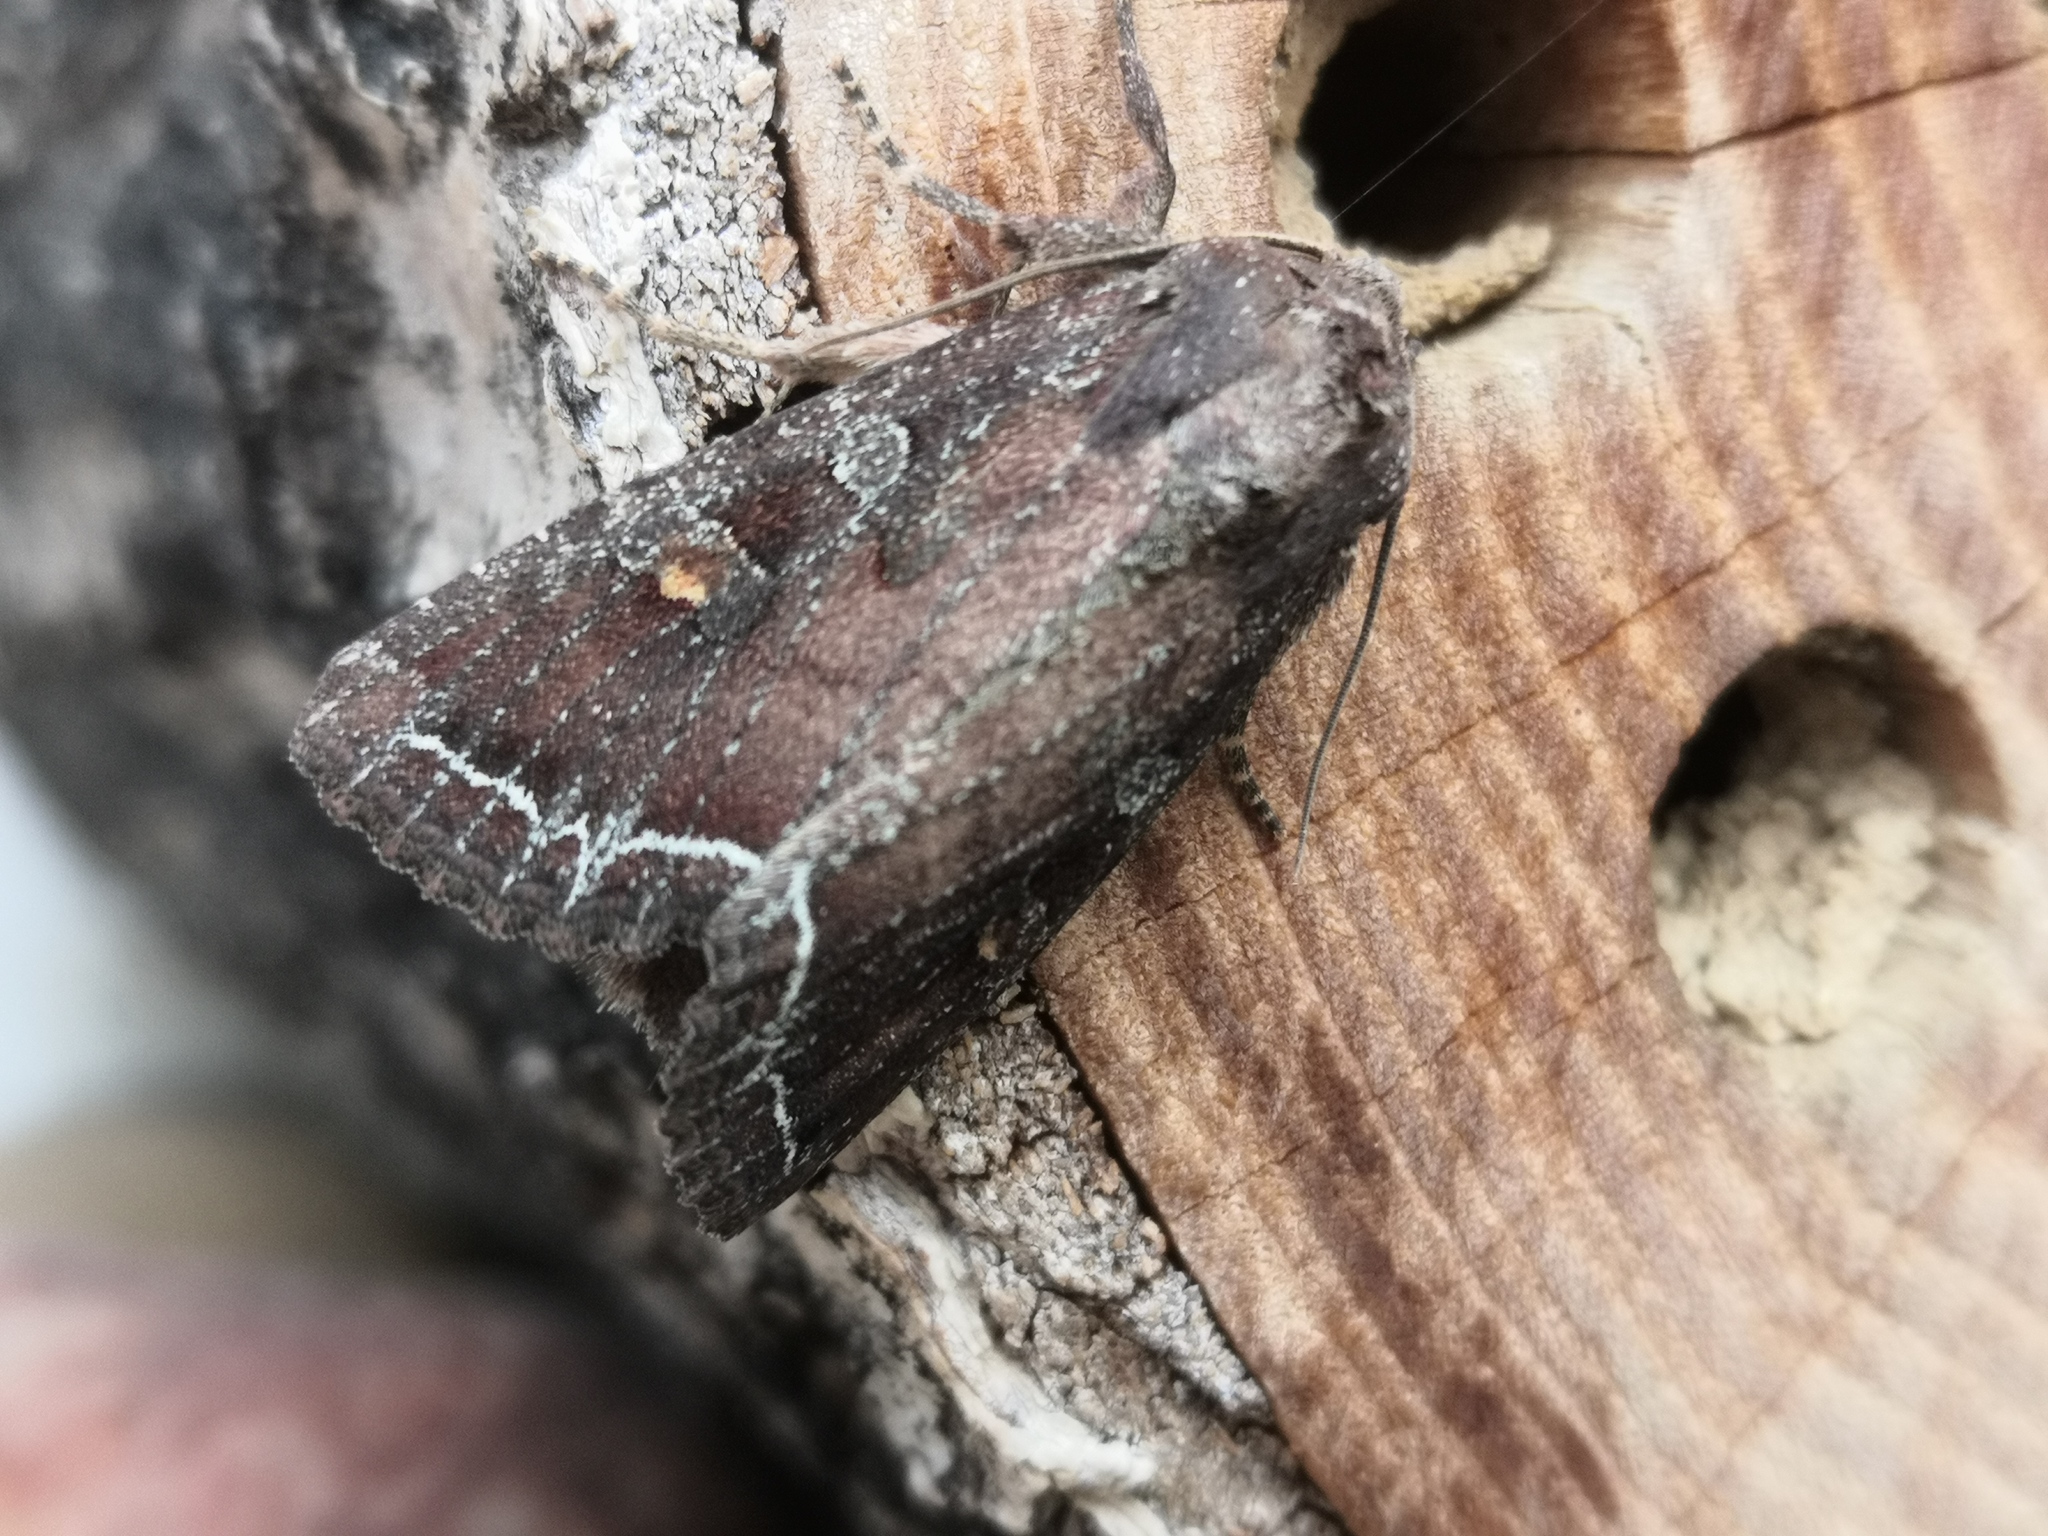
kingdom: Animalia
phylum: Arthropoda
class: Insecta
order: Lepidoptera
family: Noctuidae
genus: Lacanobia
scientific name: Lacanobia oleracea
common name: Bright-line brown-eye
